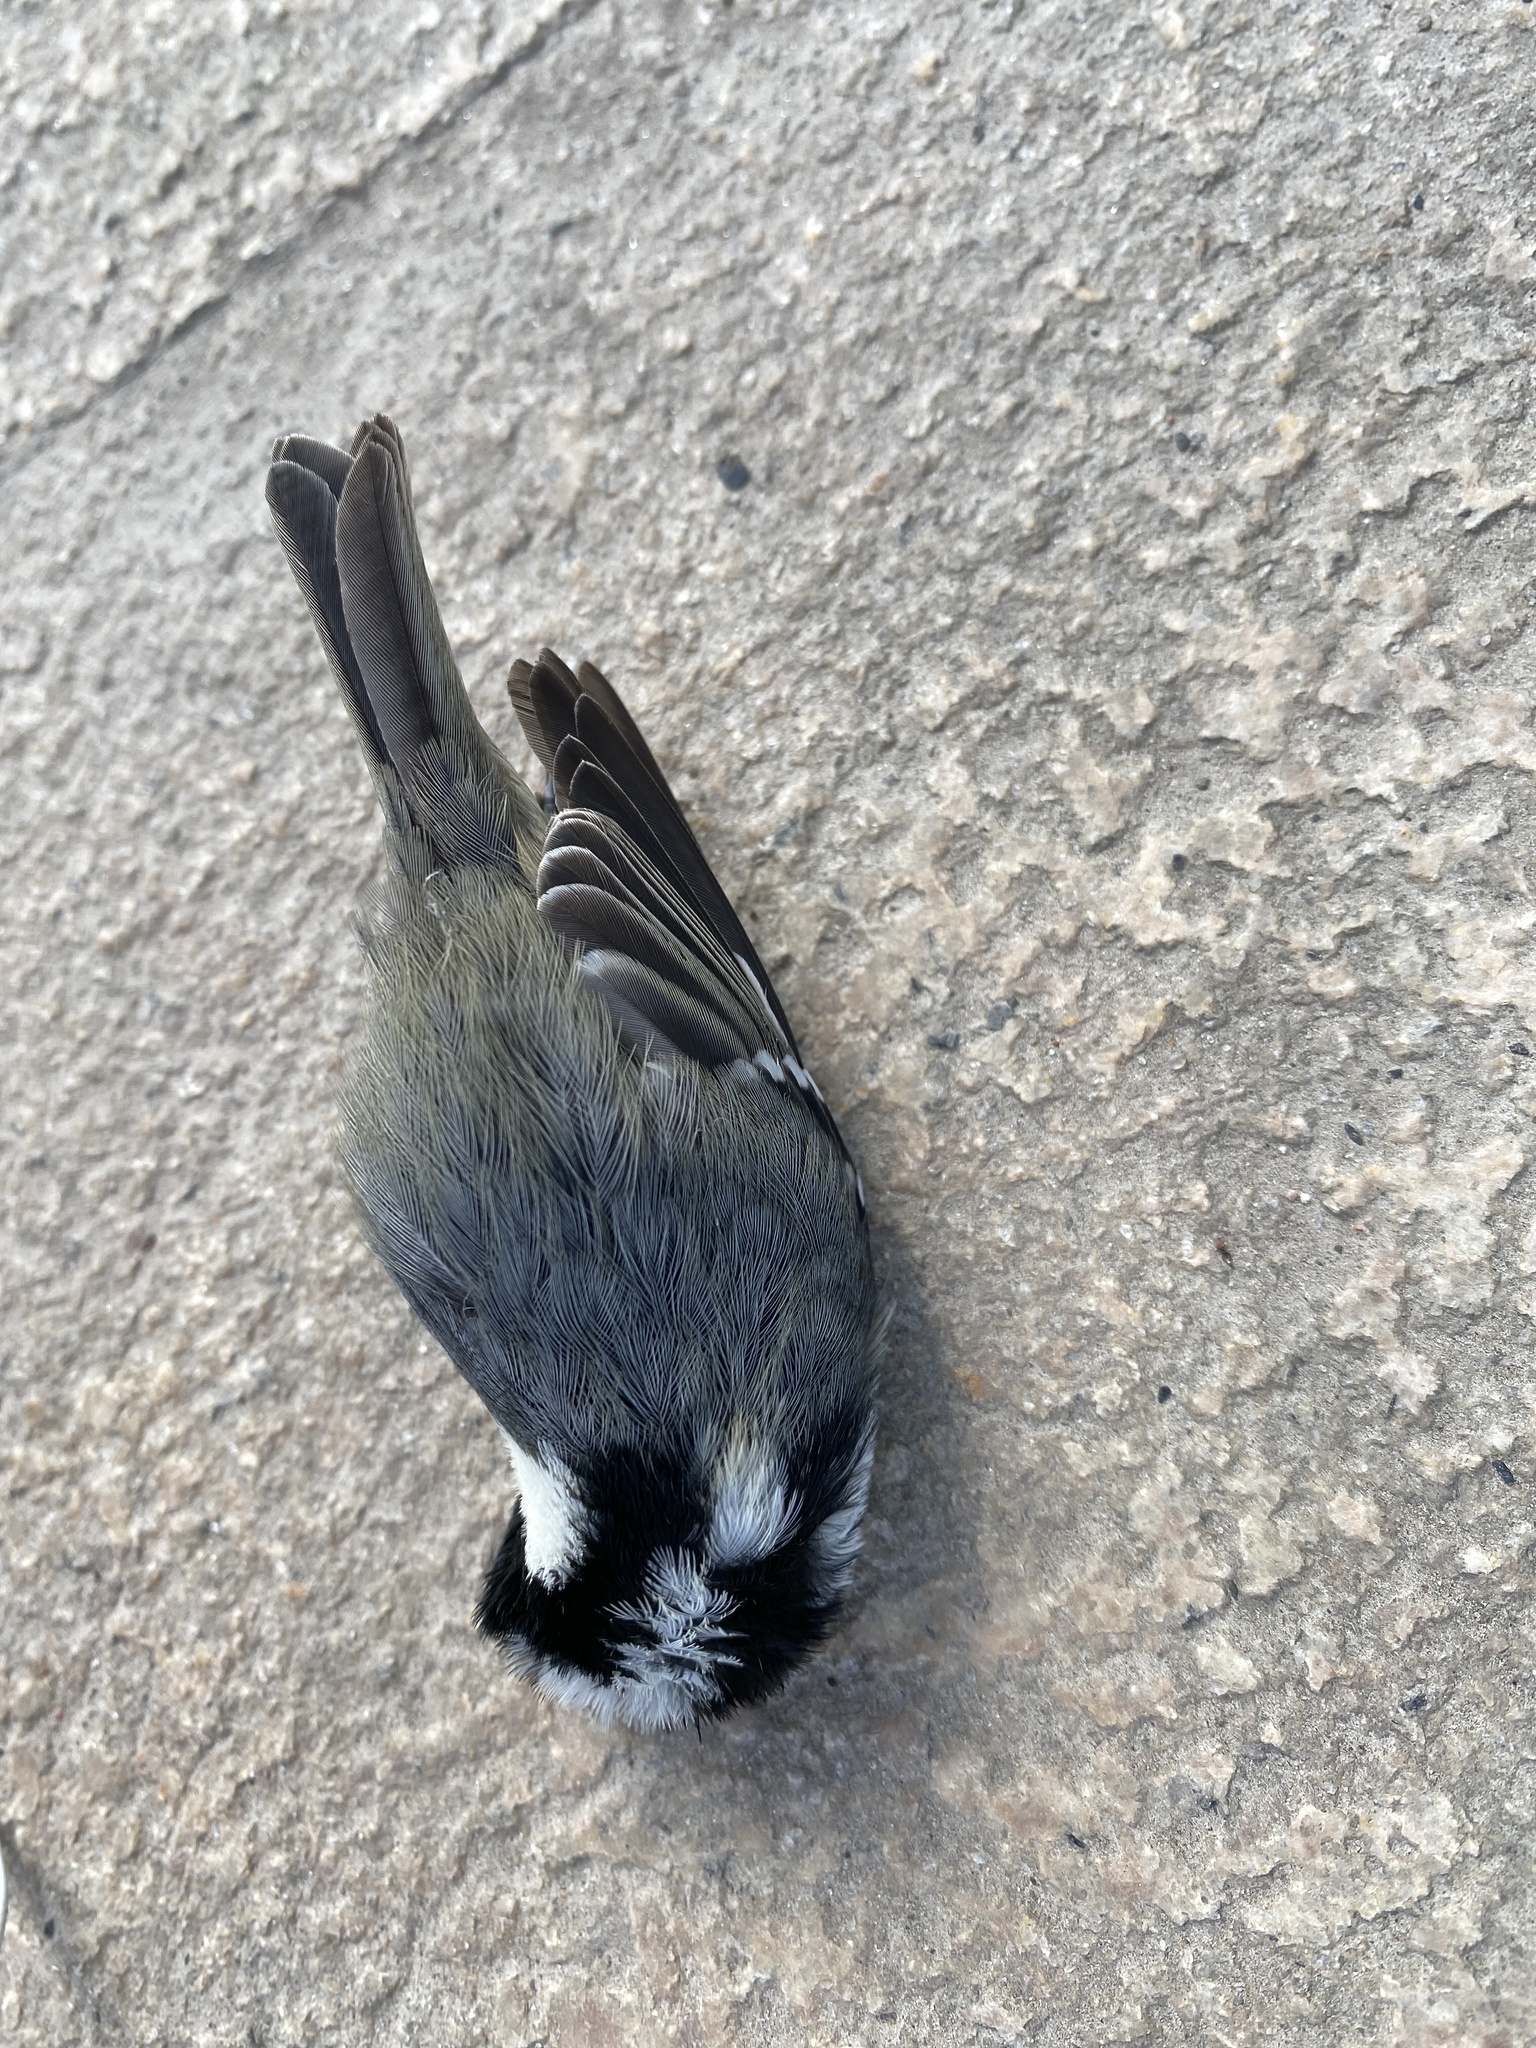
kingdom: Animalia
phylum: Chordata
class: Aves
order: Passeriformes
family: Paridae
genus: Periparus
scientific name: Periparus ater
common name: Coal tit
